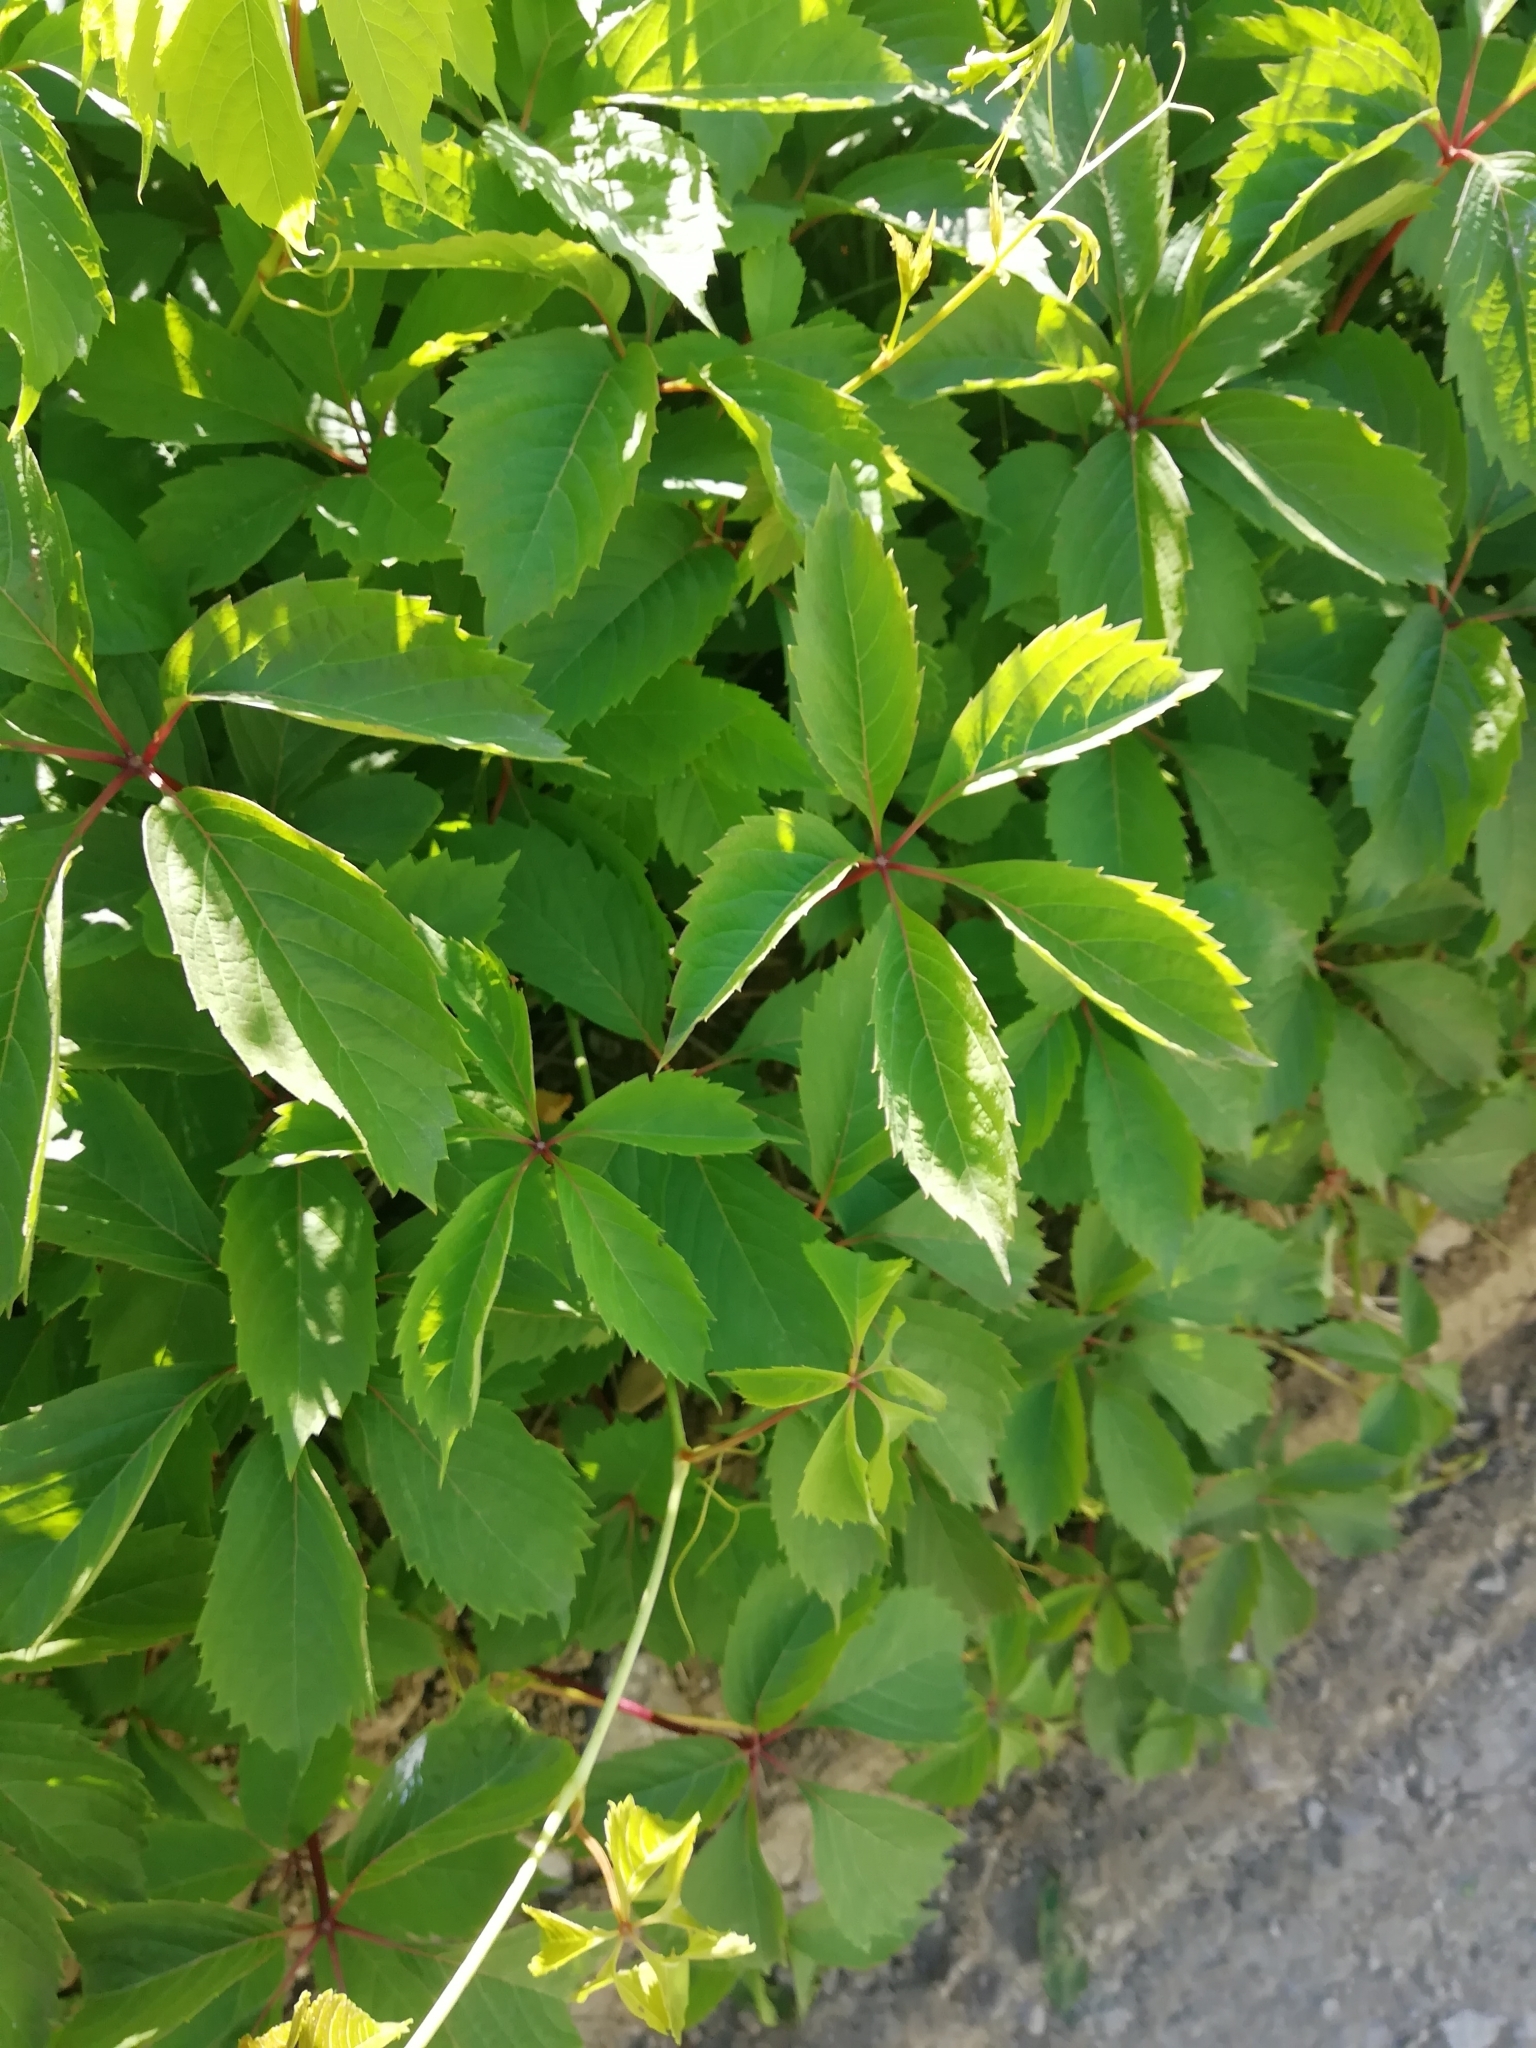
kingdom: Plantae
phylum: Tracheophyta
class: Magnoliopsida
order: Vitales
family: Vitaceae
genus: Parthenocissus
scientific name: Parthenocissus inserta
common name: False virginia-creeper
